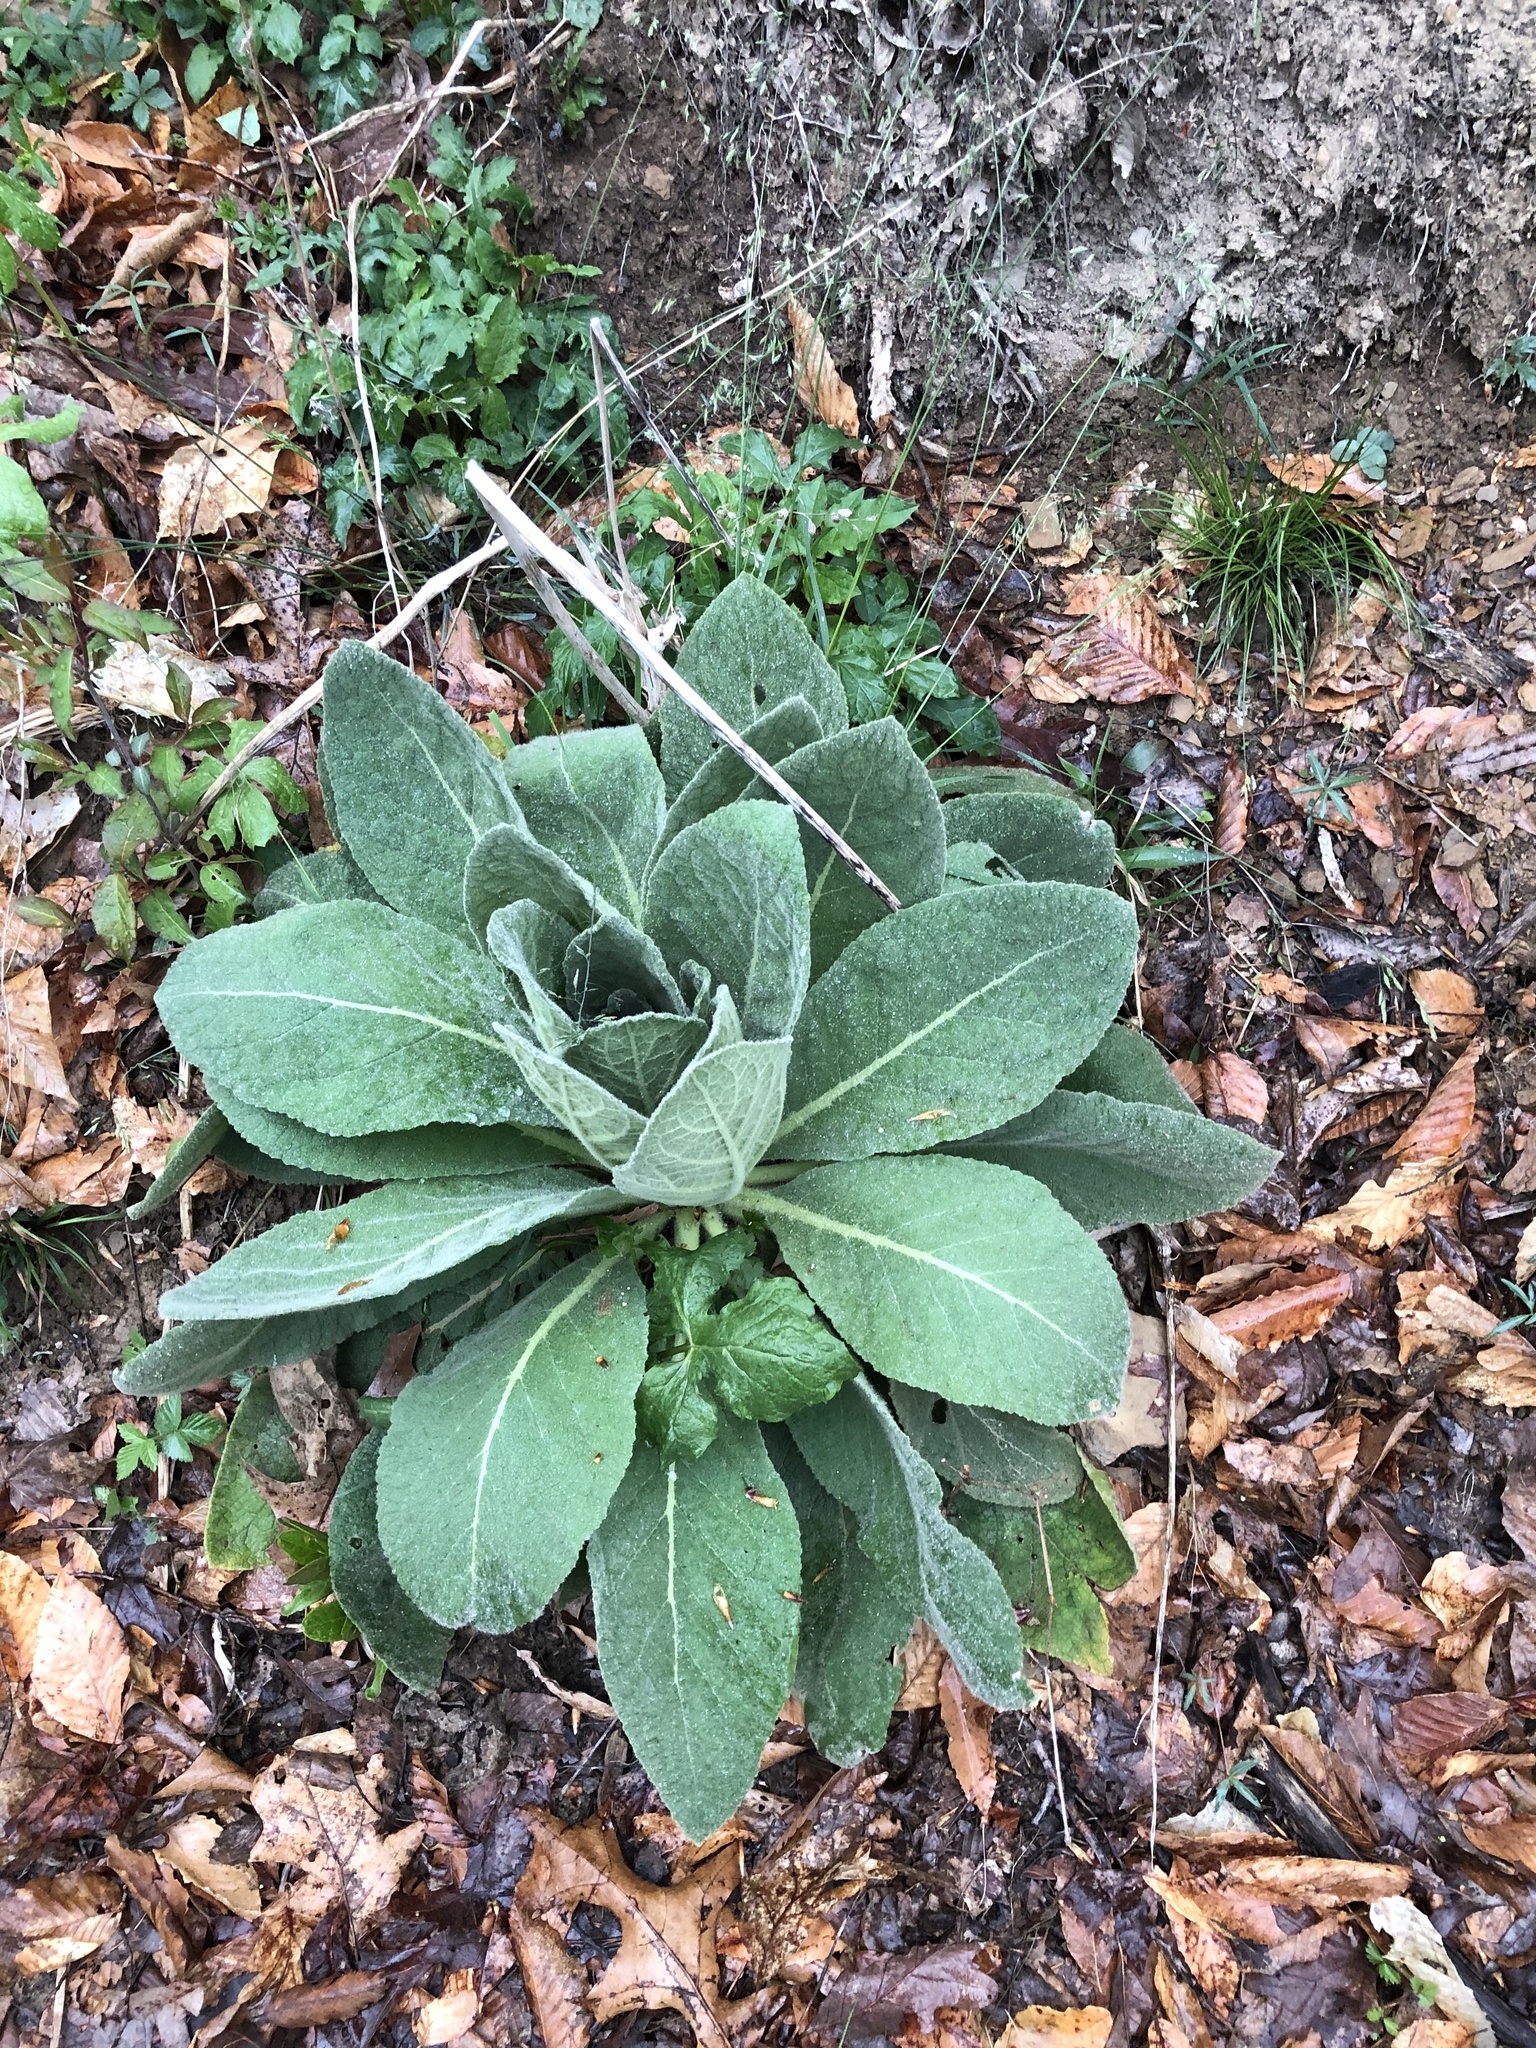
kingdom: Plantae
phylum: Tracheophyta
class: Magnoliopsida
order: Lamiales
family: Scrophulariaceae
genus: Verbascum
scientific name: Verbascum thapsus
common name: Common mullein
